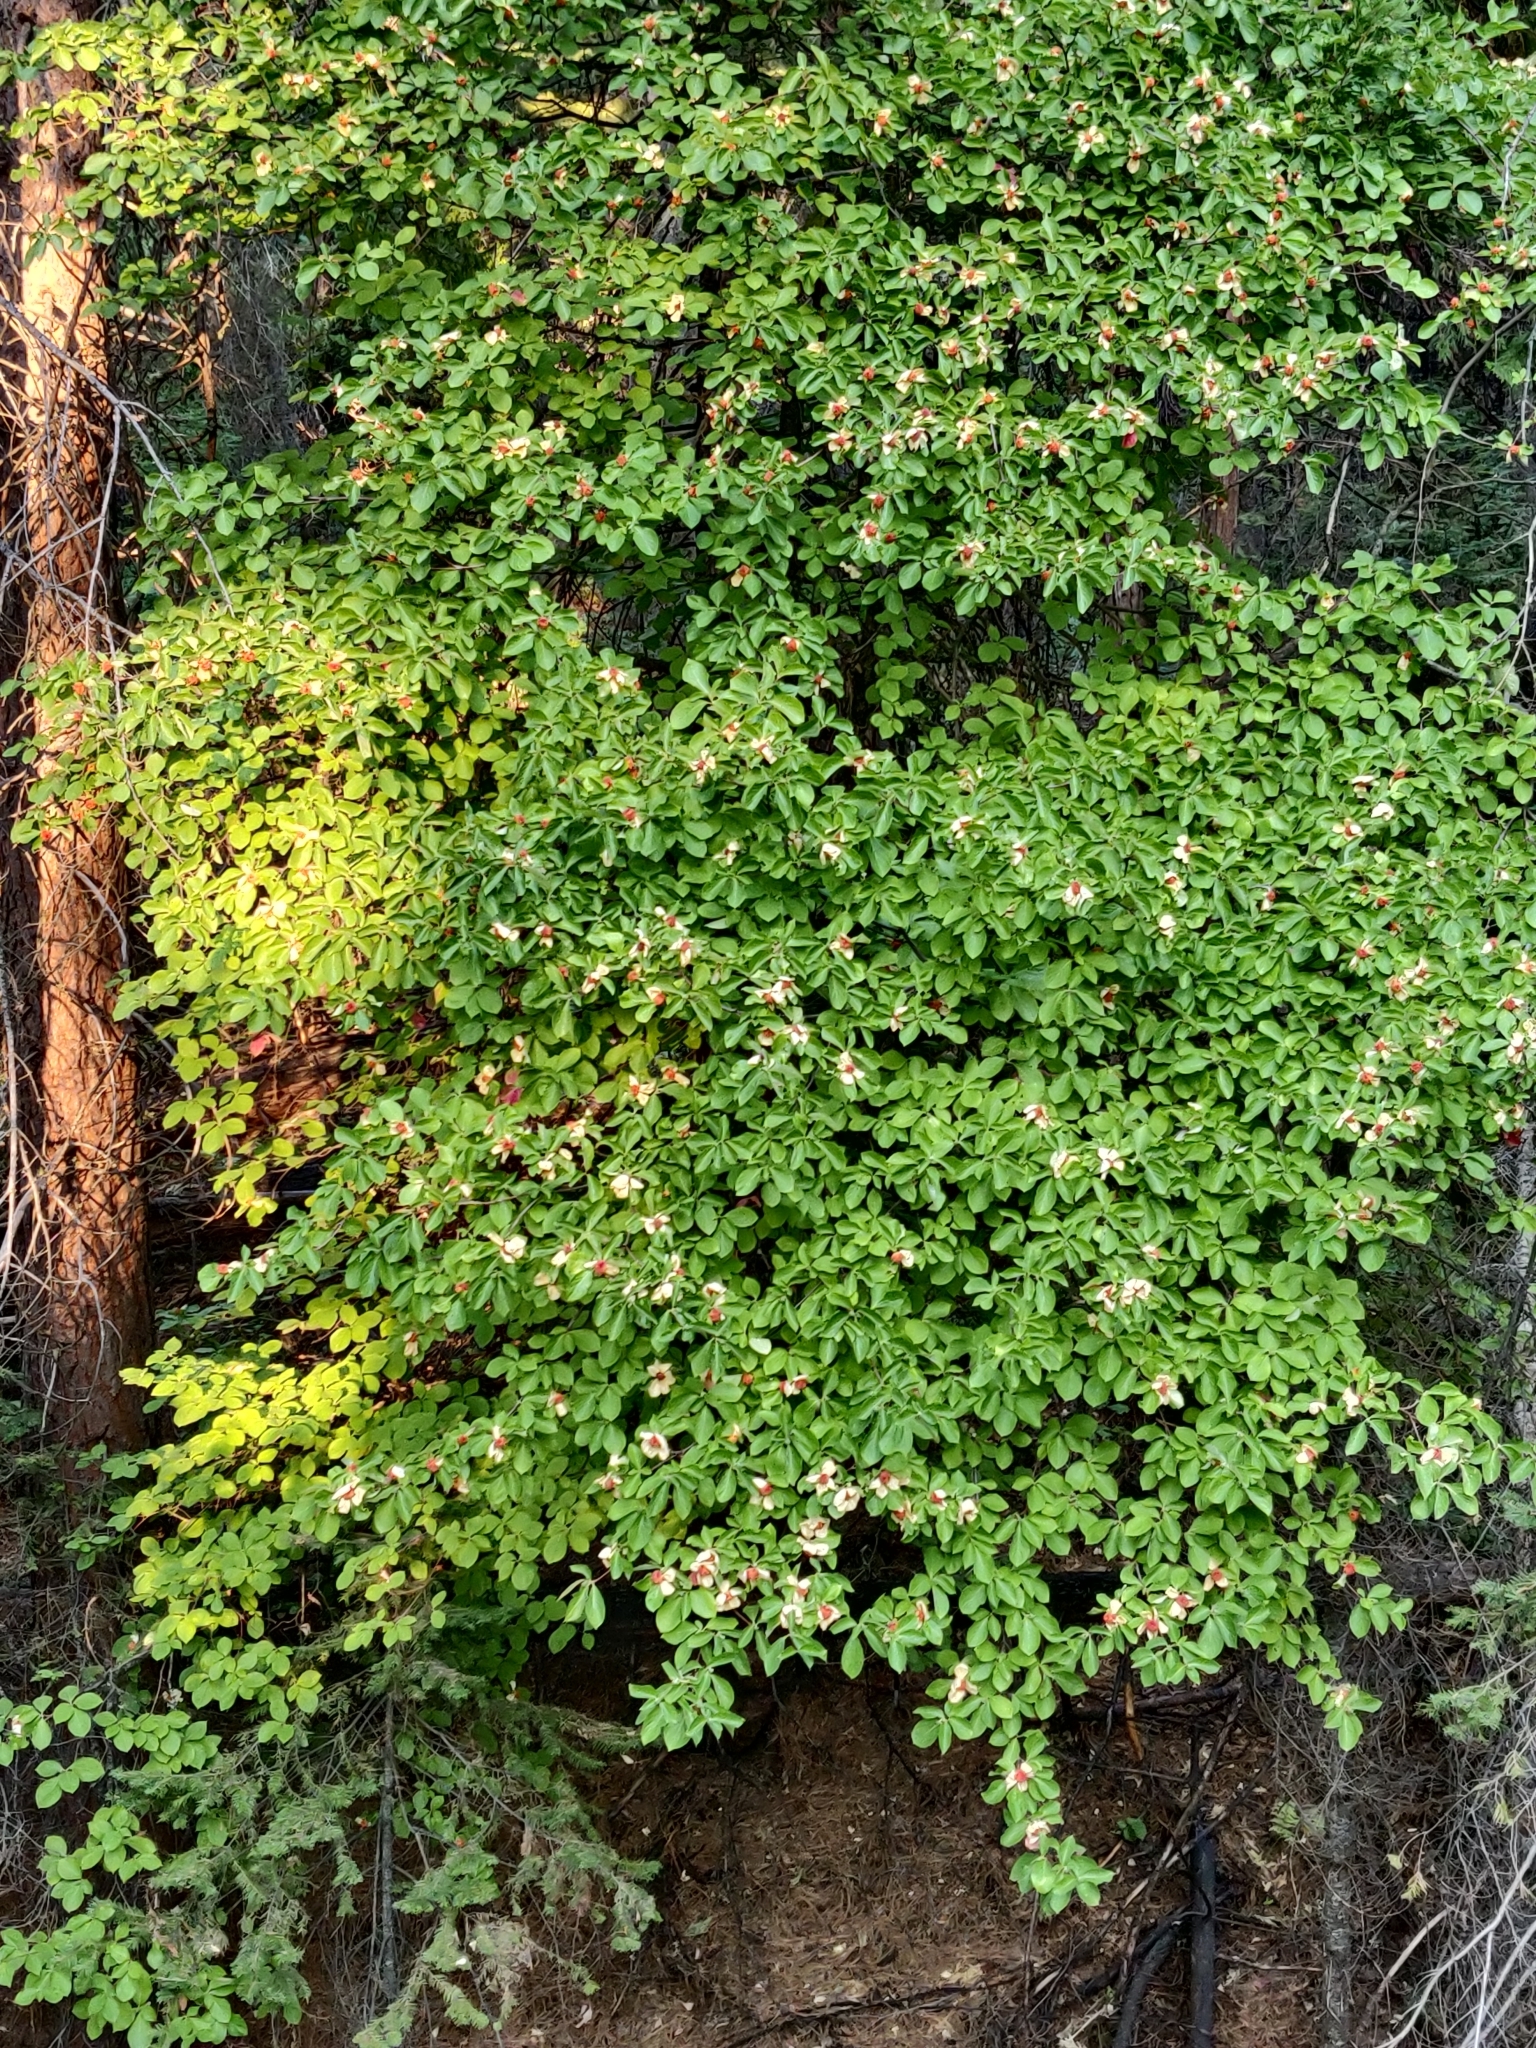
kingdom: Plantae
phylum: Tracheophyta
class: Magnoliopsida
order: Cornales
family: Cornaceae
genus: Cornus
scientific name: Cornus nuttallii
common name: Pacific dogwood
